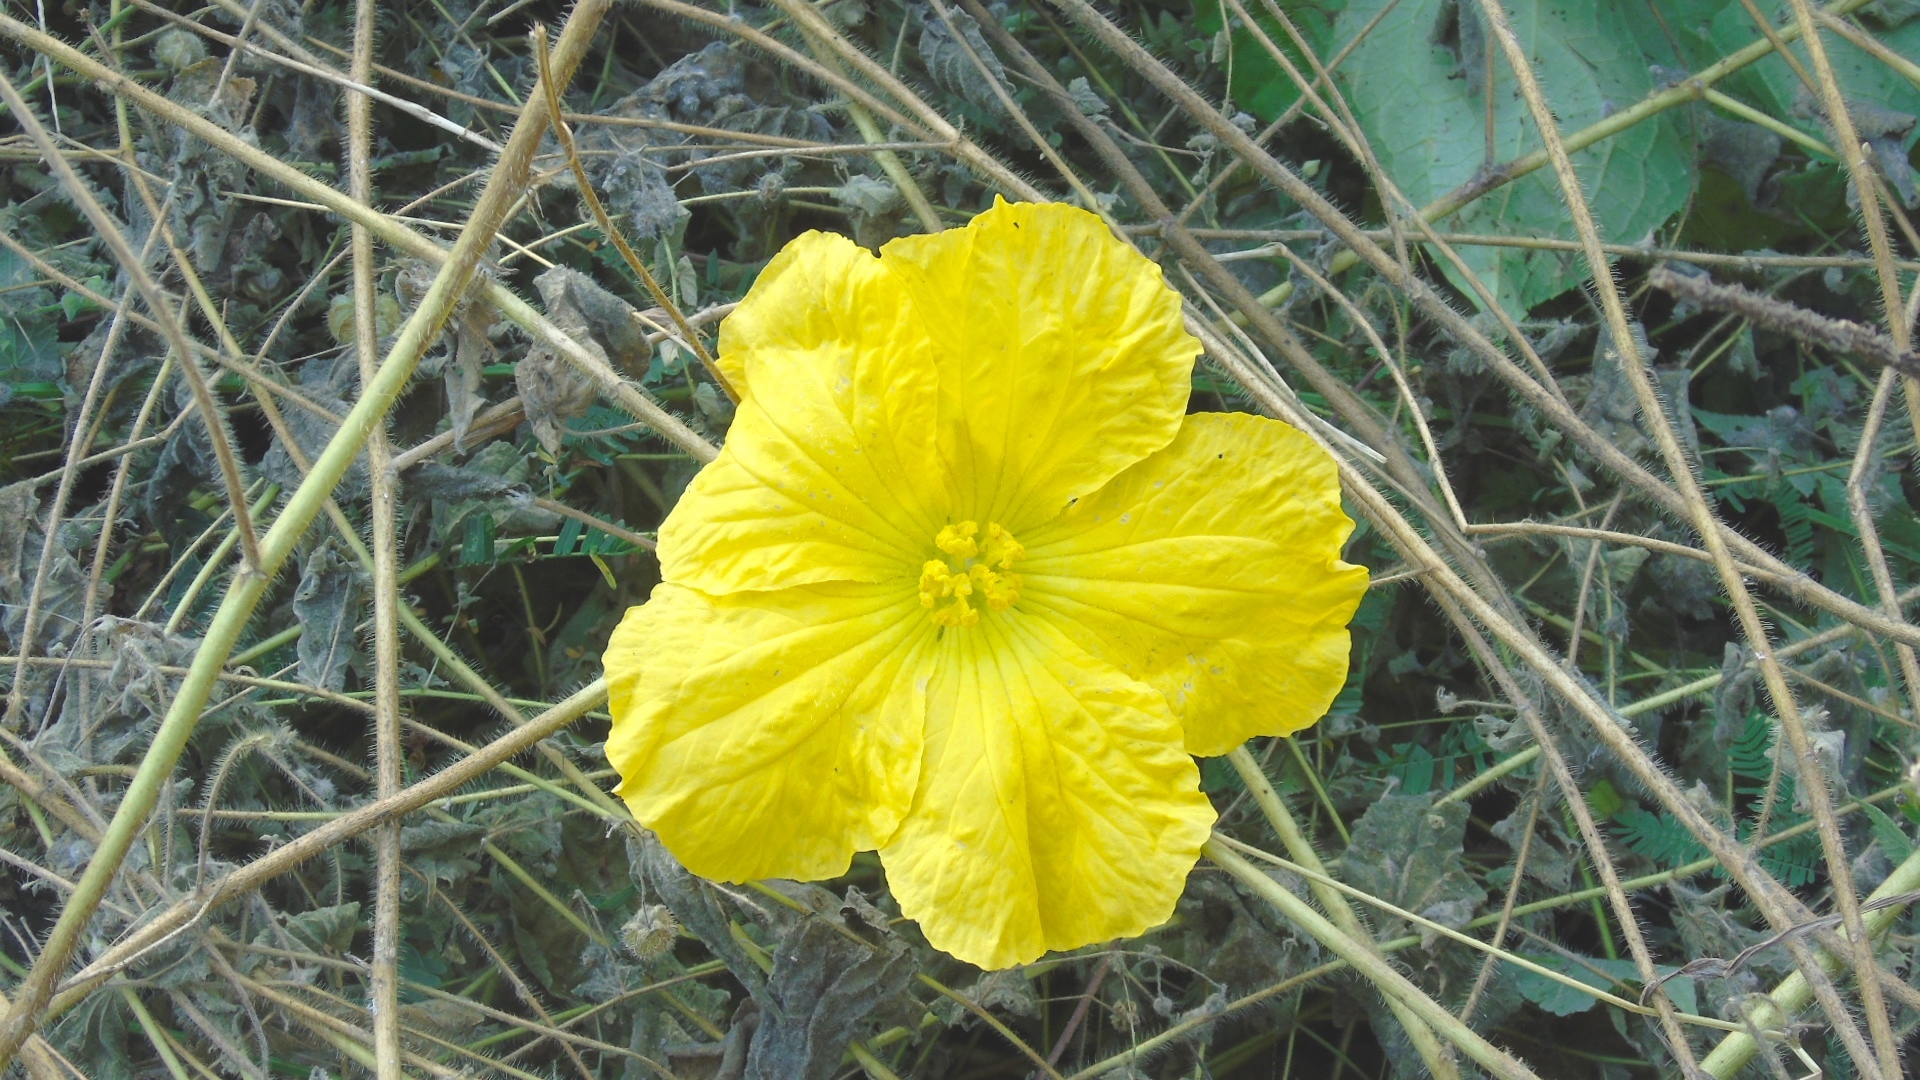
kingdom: Plantae
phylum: Tracheophyta
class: Magnoliopsida
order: Cucurbitales
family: Cucurbitaceae
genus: Luffa
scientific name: Luffa aegyptiaca
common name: Sponge gourd
